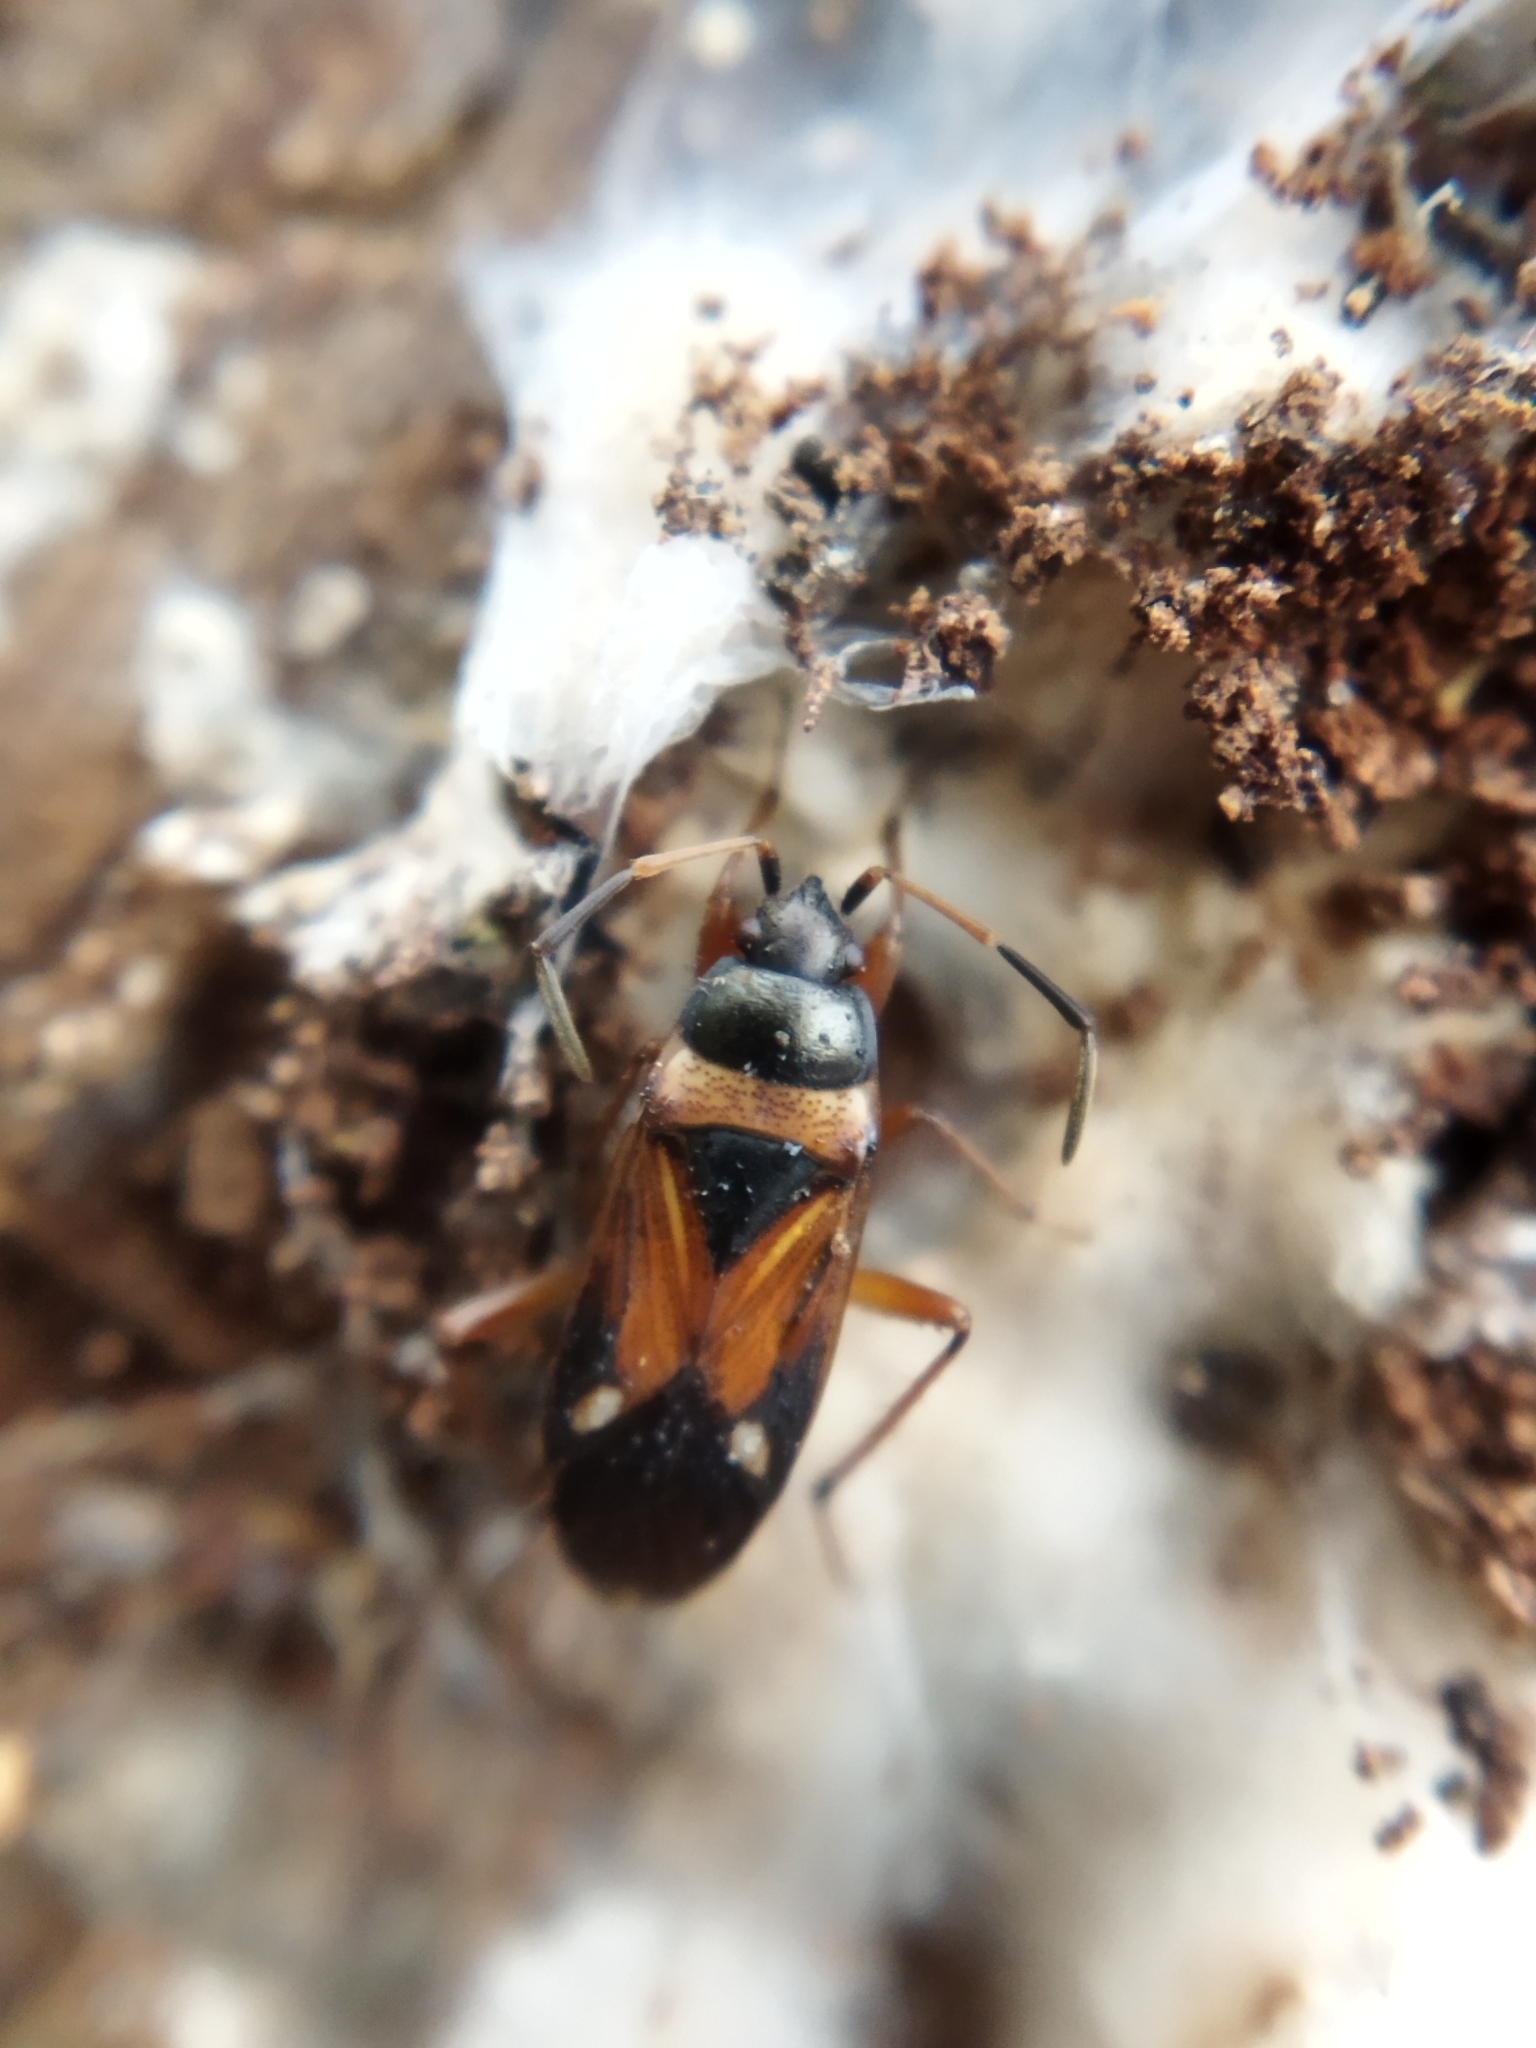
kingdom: Animalia
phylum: Arthropoda
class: Insecta
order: Hemiptera
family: Rhyparochromidae
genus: Raglius
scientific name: Raglius alboacuminatus
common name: Dirt-colored seed bug
